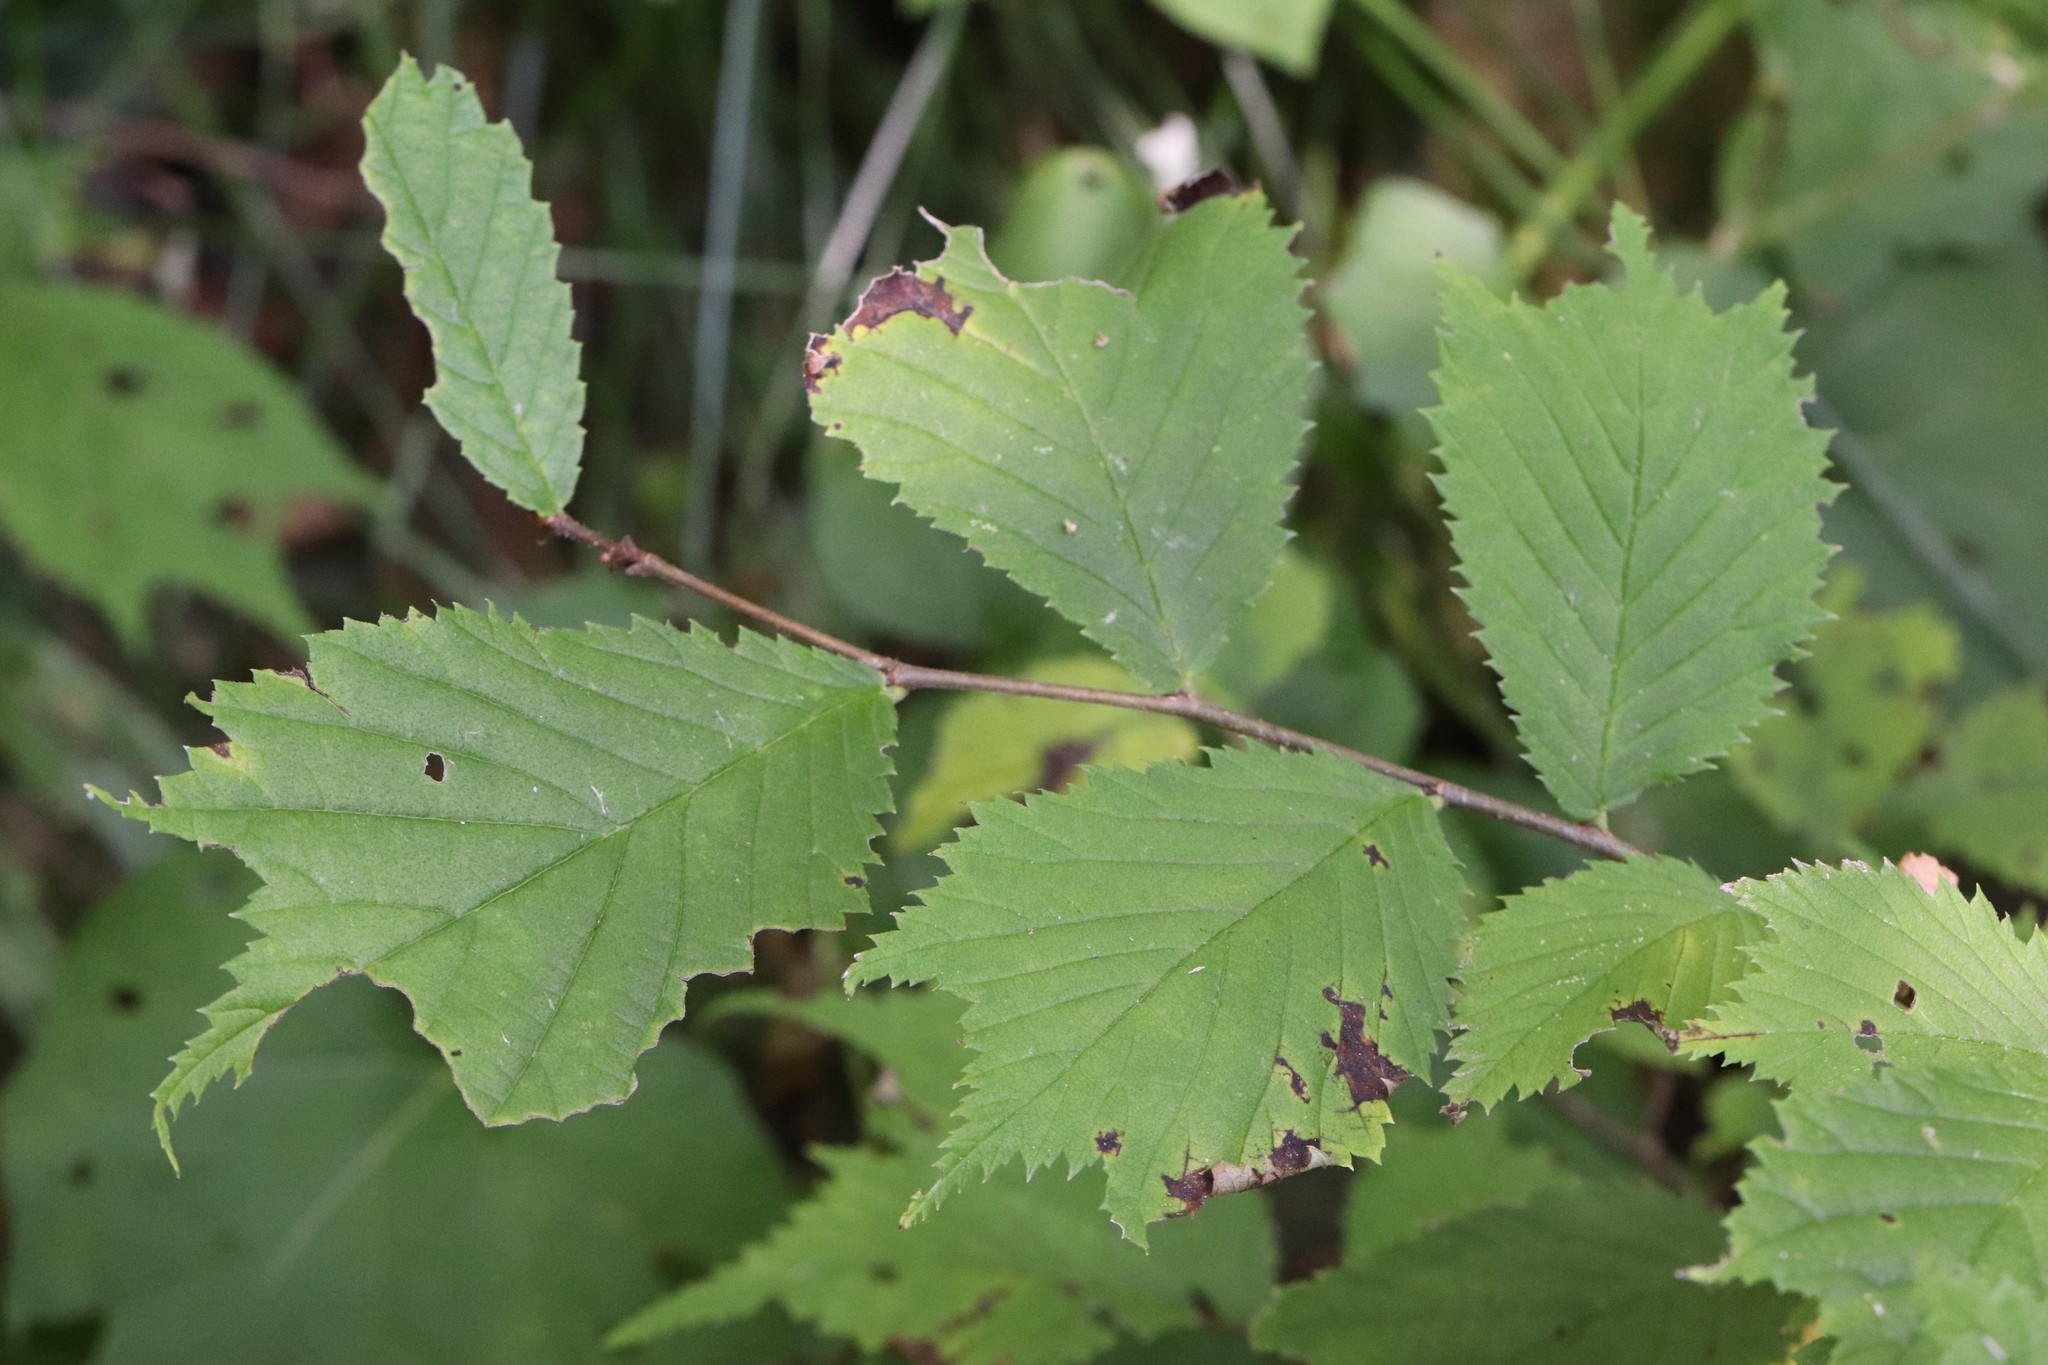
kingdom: Plantae
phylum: Tracheophyta
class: Magnoliopsida
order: Rosales
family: Ulmaceae
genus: Ulmus
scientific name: Ulmus laciniata
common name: Japanese elm
